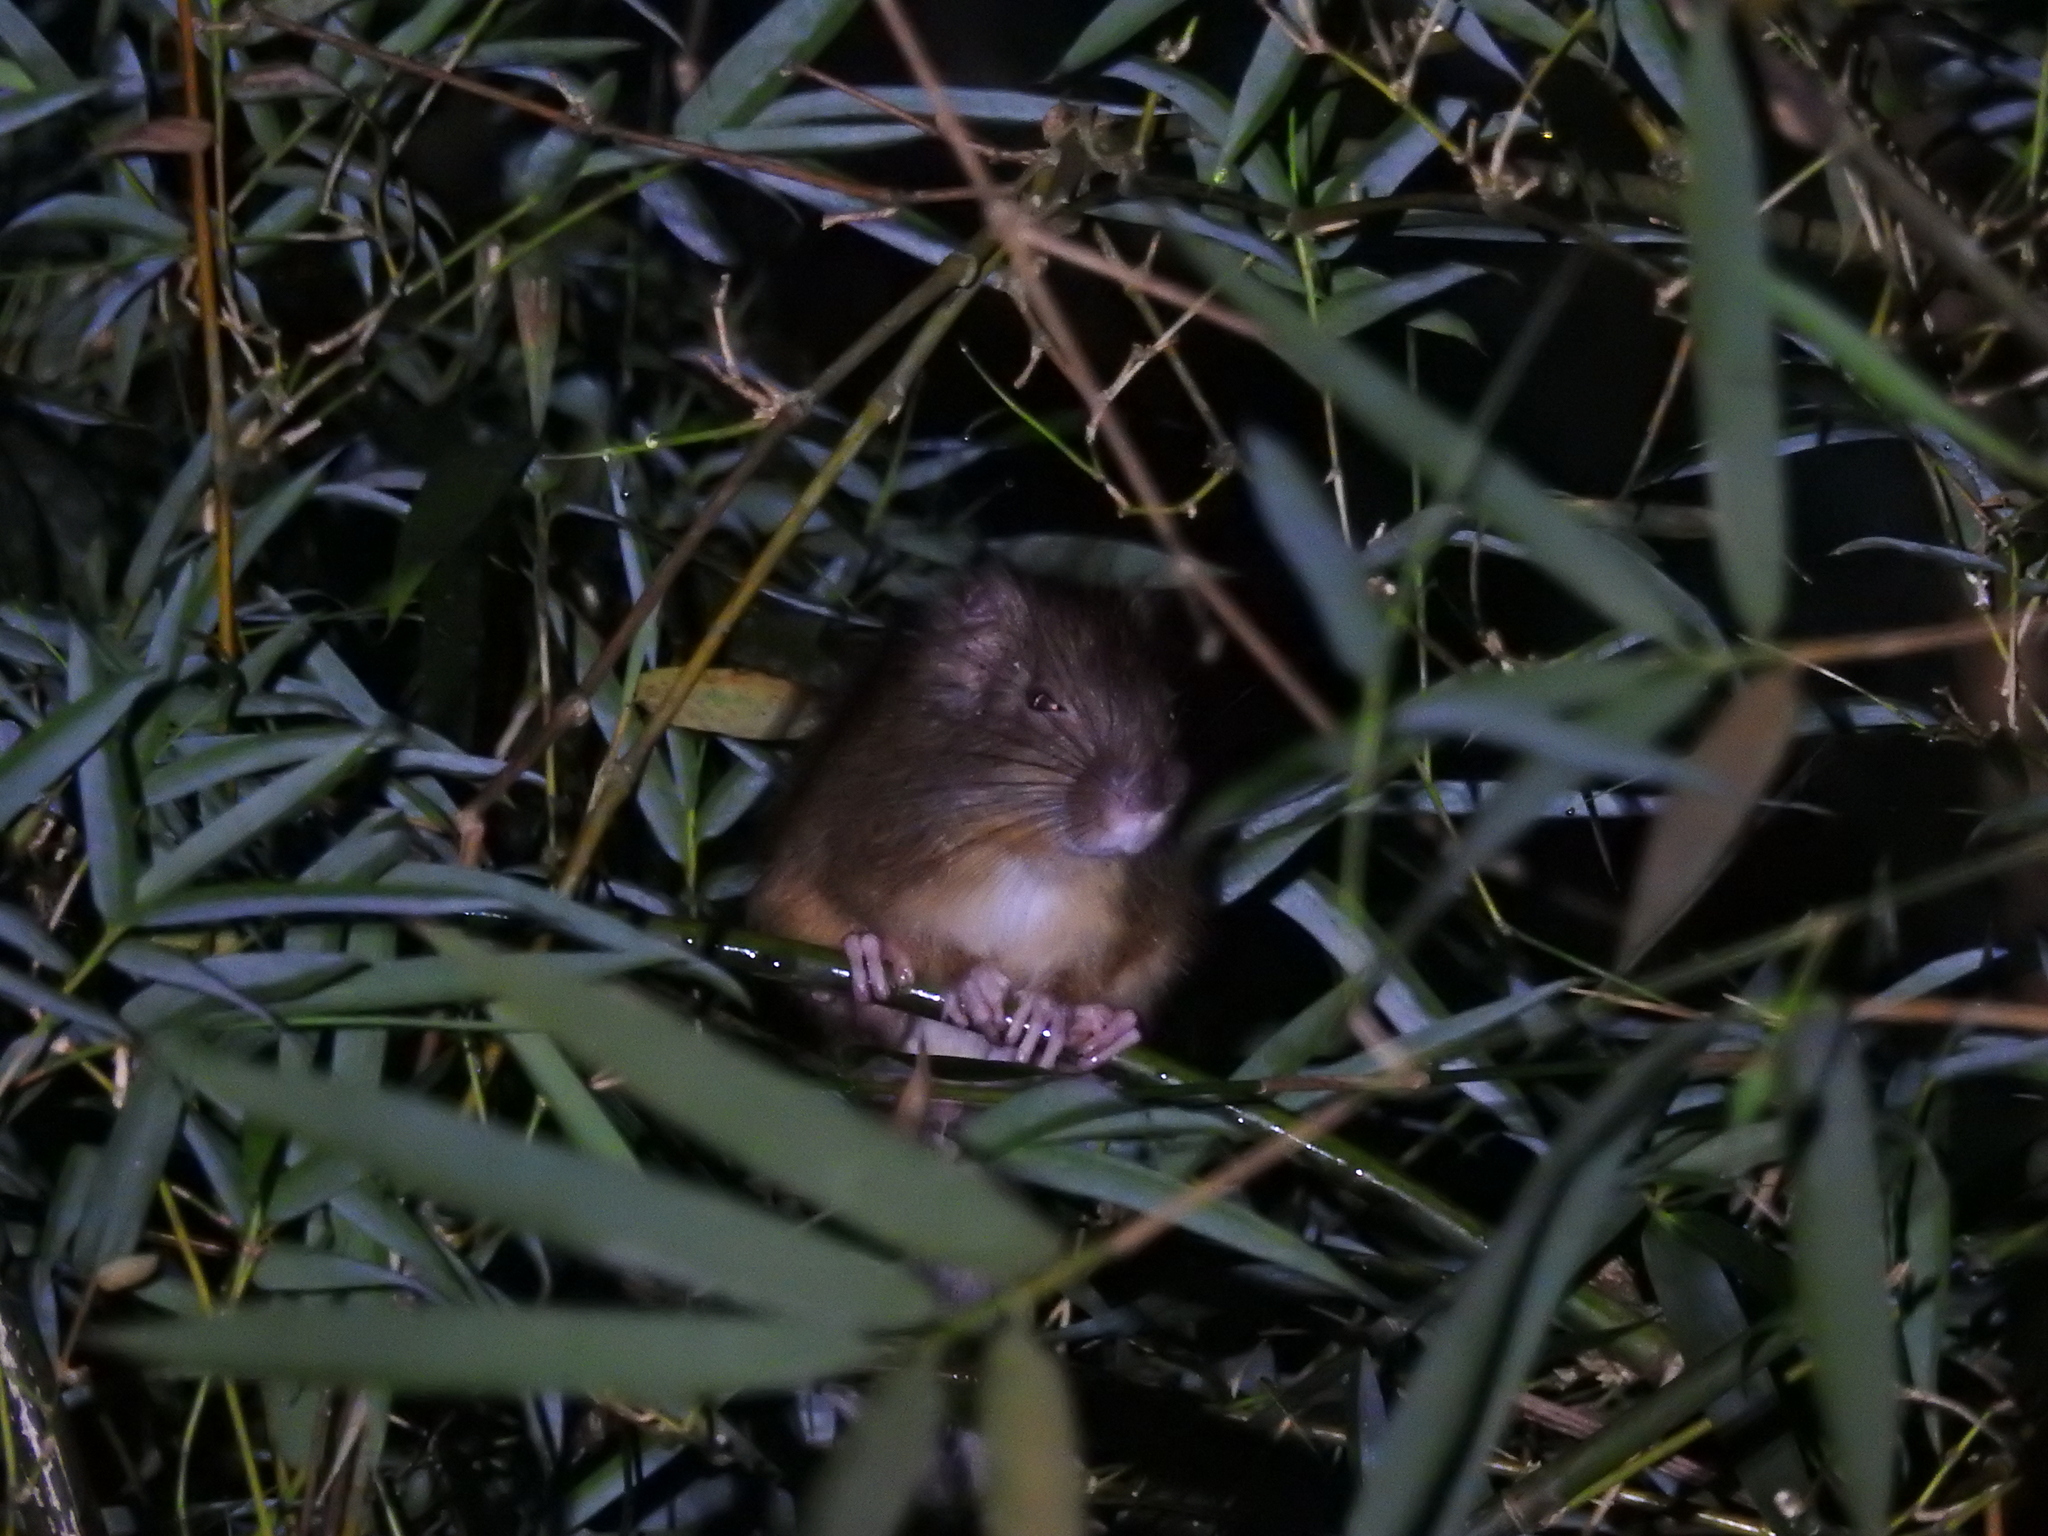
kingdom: Animalia
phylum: Chordata
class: Mammalia
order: Rodentia
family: Echimyidae
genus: Kannabateomys
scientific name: Kannabateomys amblyonyx
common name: Atlantic bamboo rat
